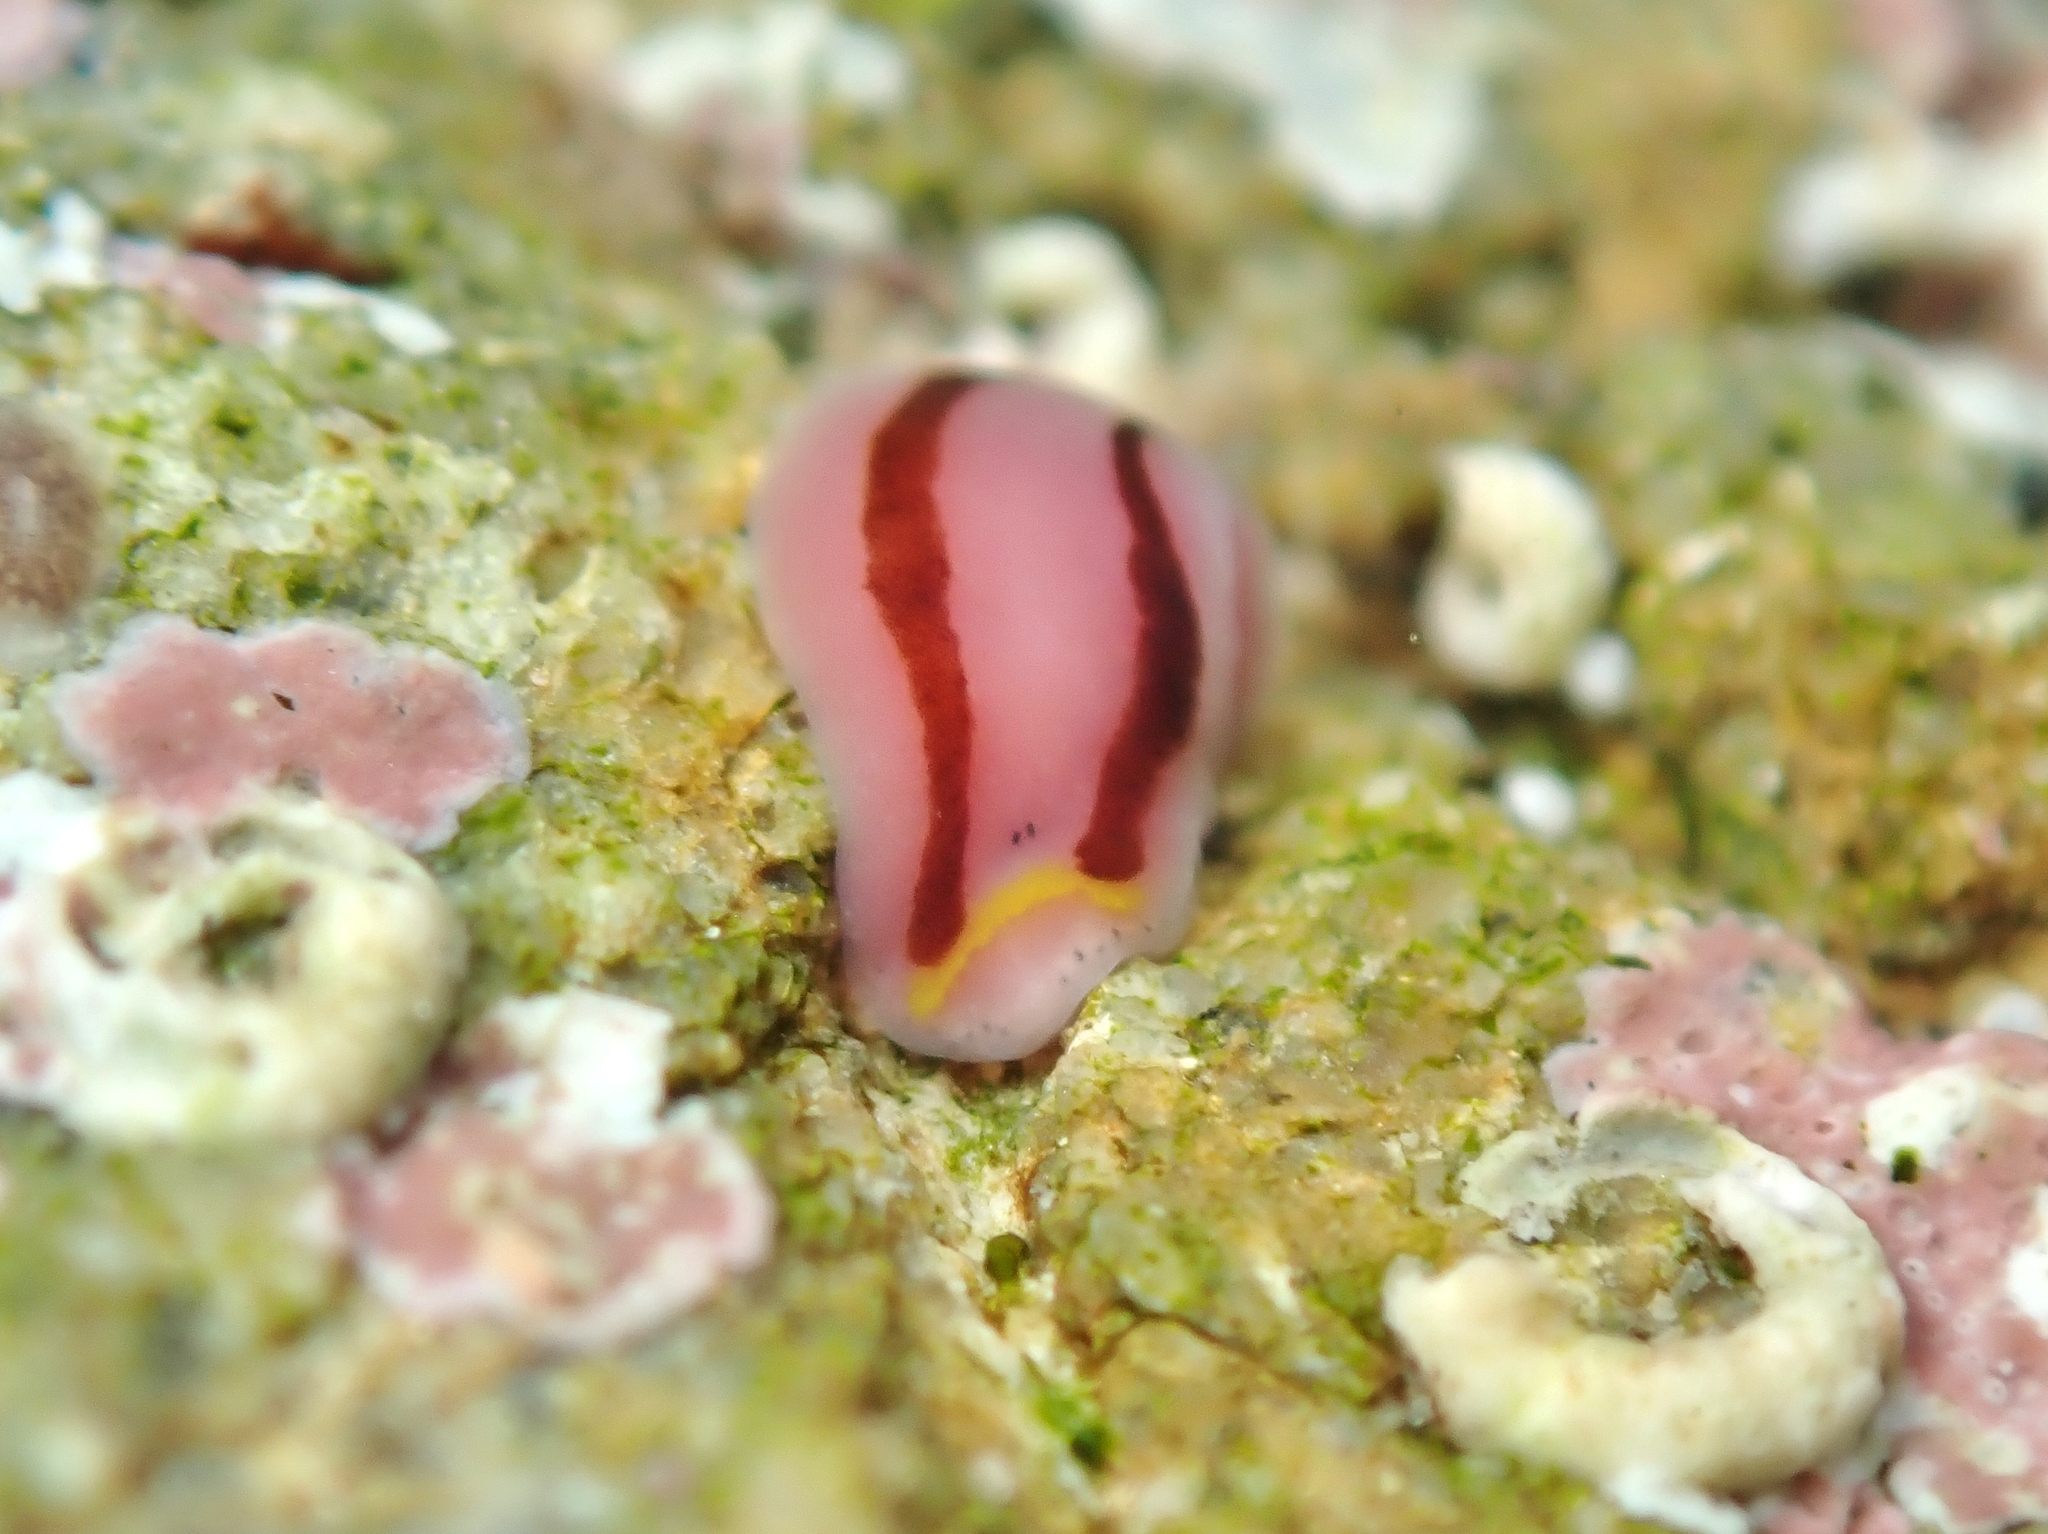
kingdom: Animalia
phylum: Platyhelminthes
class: Turbellaria
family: Chromoplanidae
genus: Chromoplana
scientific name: Chromoplana sirena
